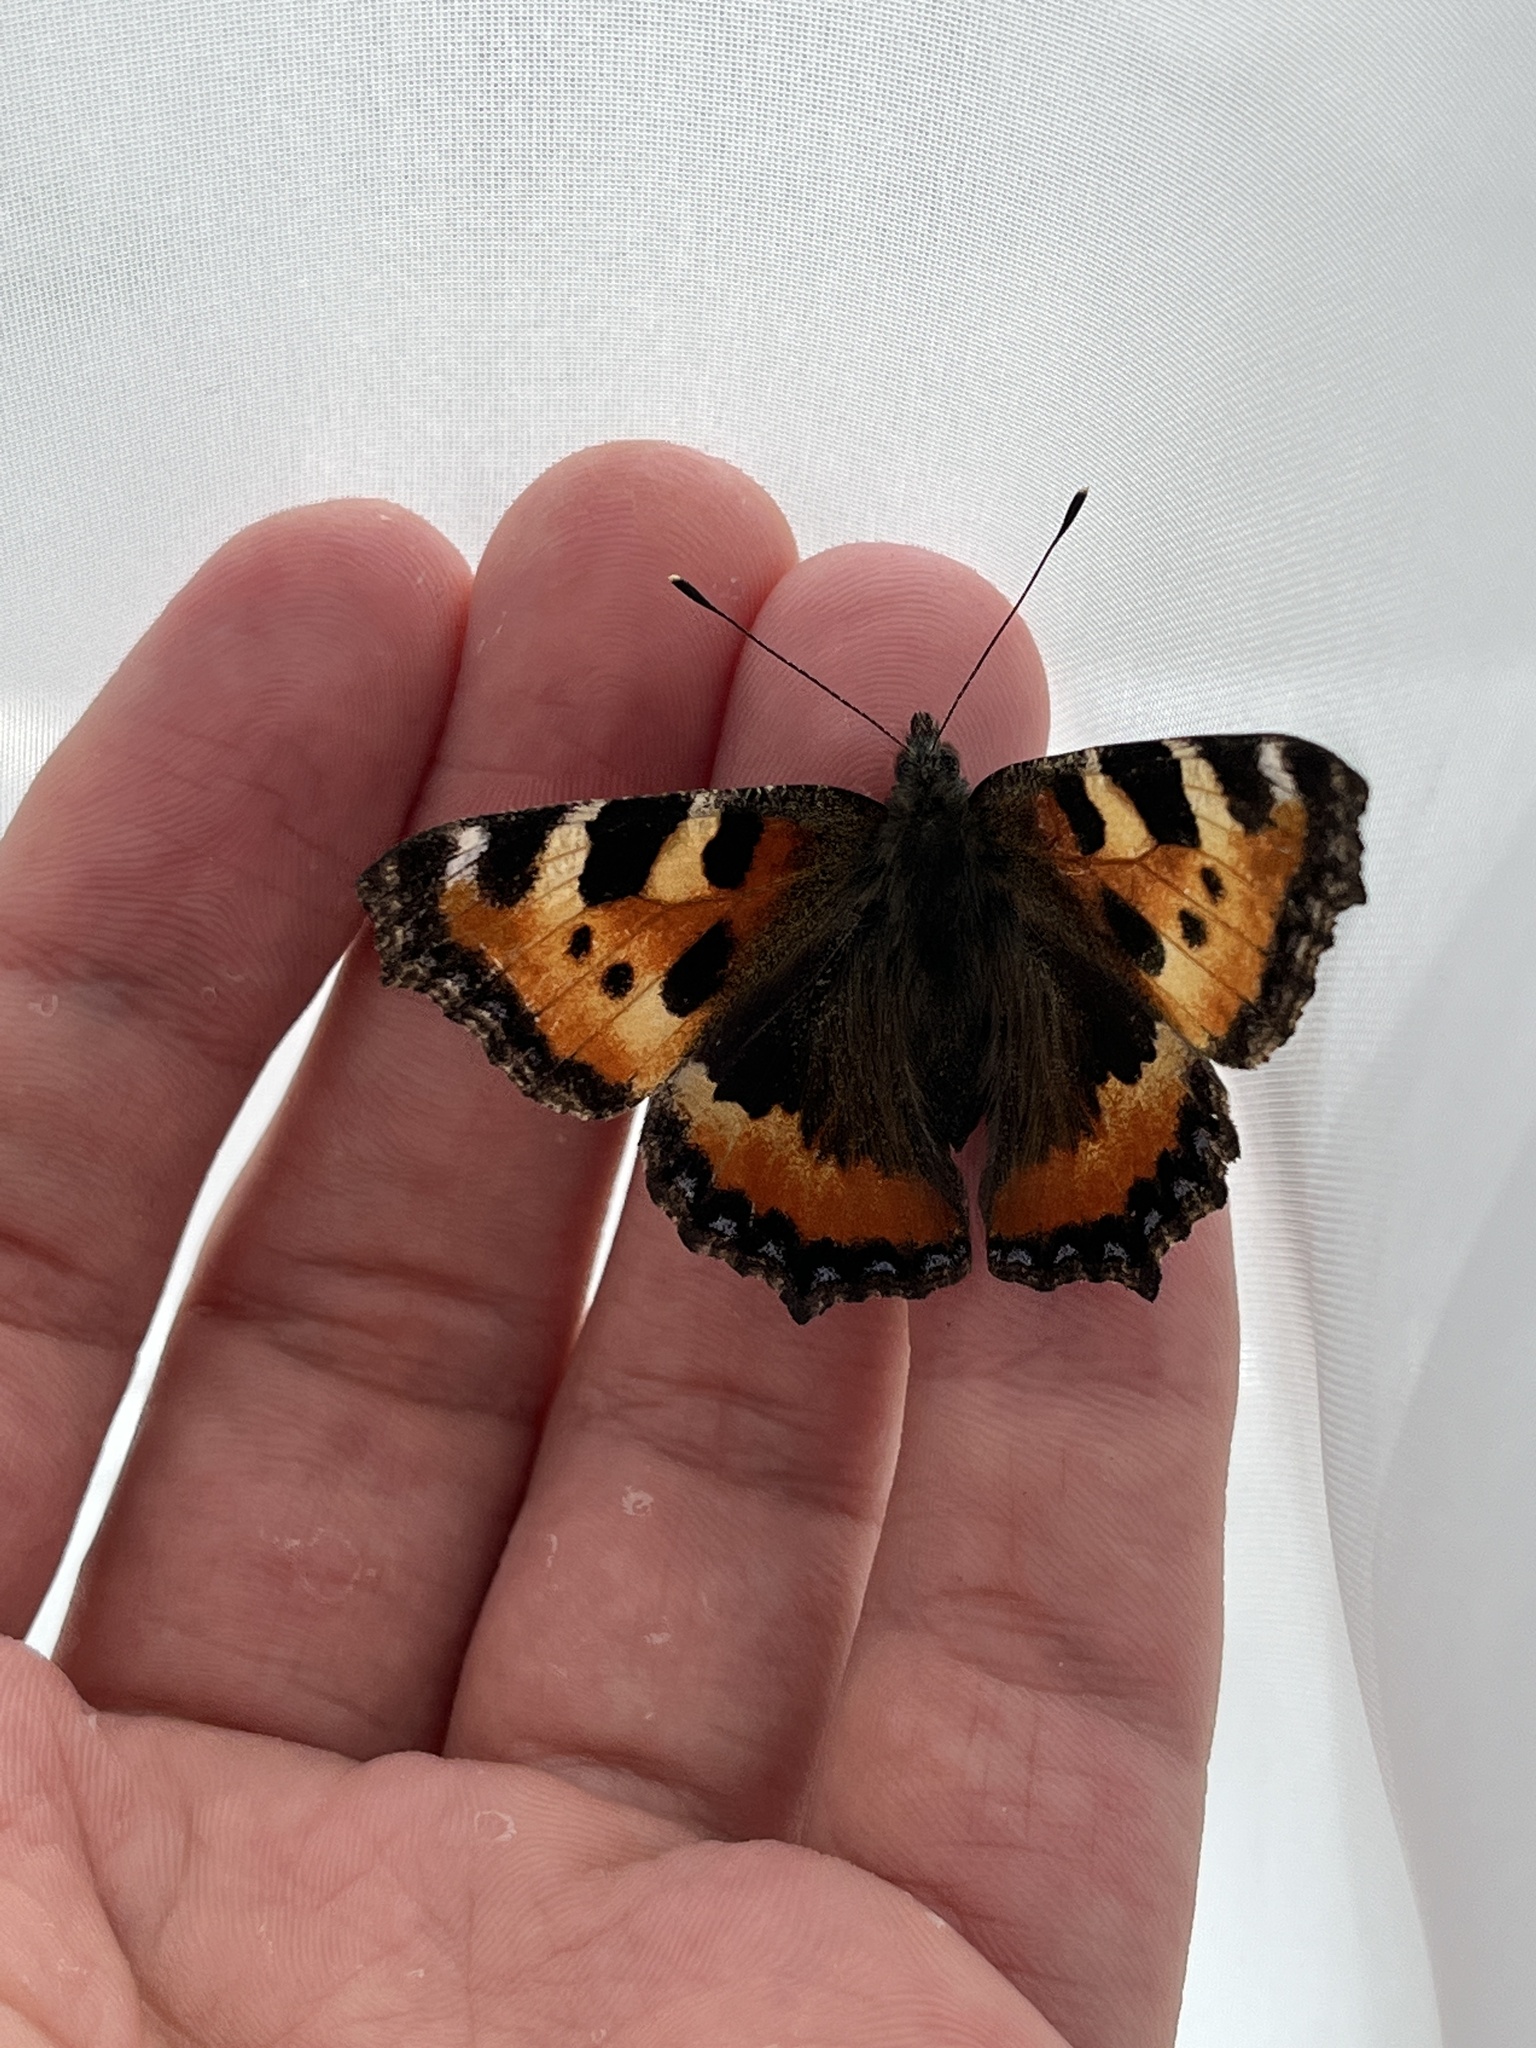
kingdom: Animalia
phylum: Arthropoda
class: Insecta
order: Lepidoptera
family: Nymphalidae
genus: Aglais
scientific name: Aglais urticae
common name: Small tortoiseshell
